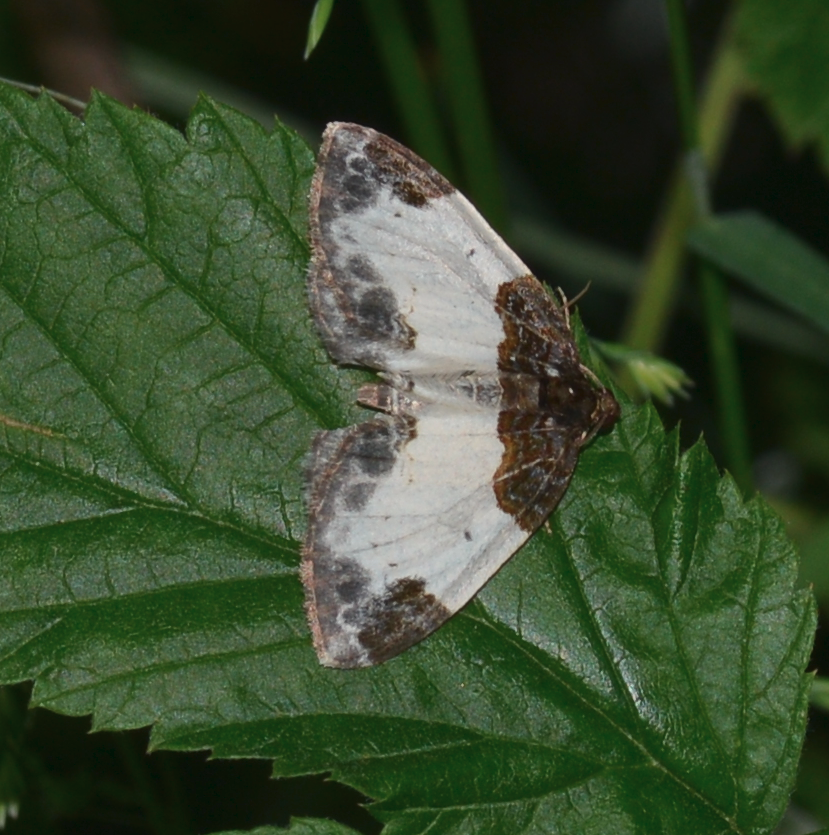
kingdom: Animalia
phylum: Arthropoda
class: Insecta
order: Lepidoptera
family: Geometridae
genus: Mesoleuca
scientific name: Mesoleuca albicillata
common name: Beautiful carpet
